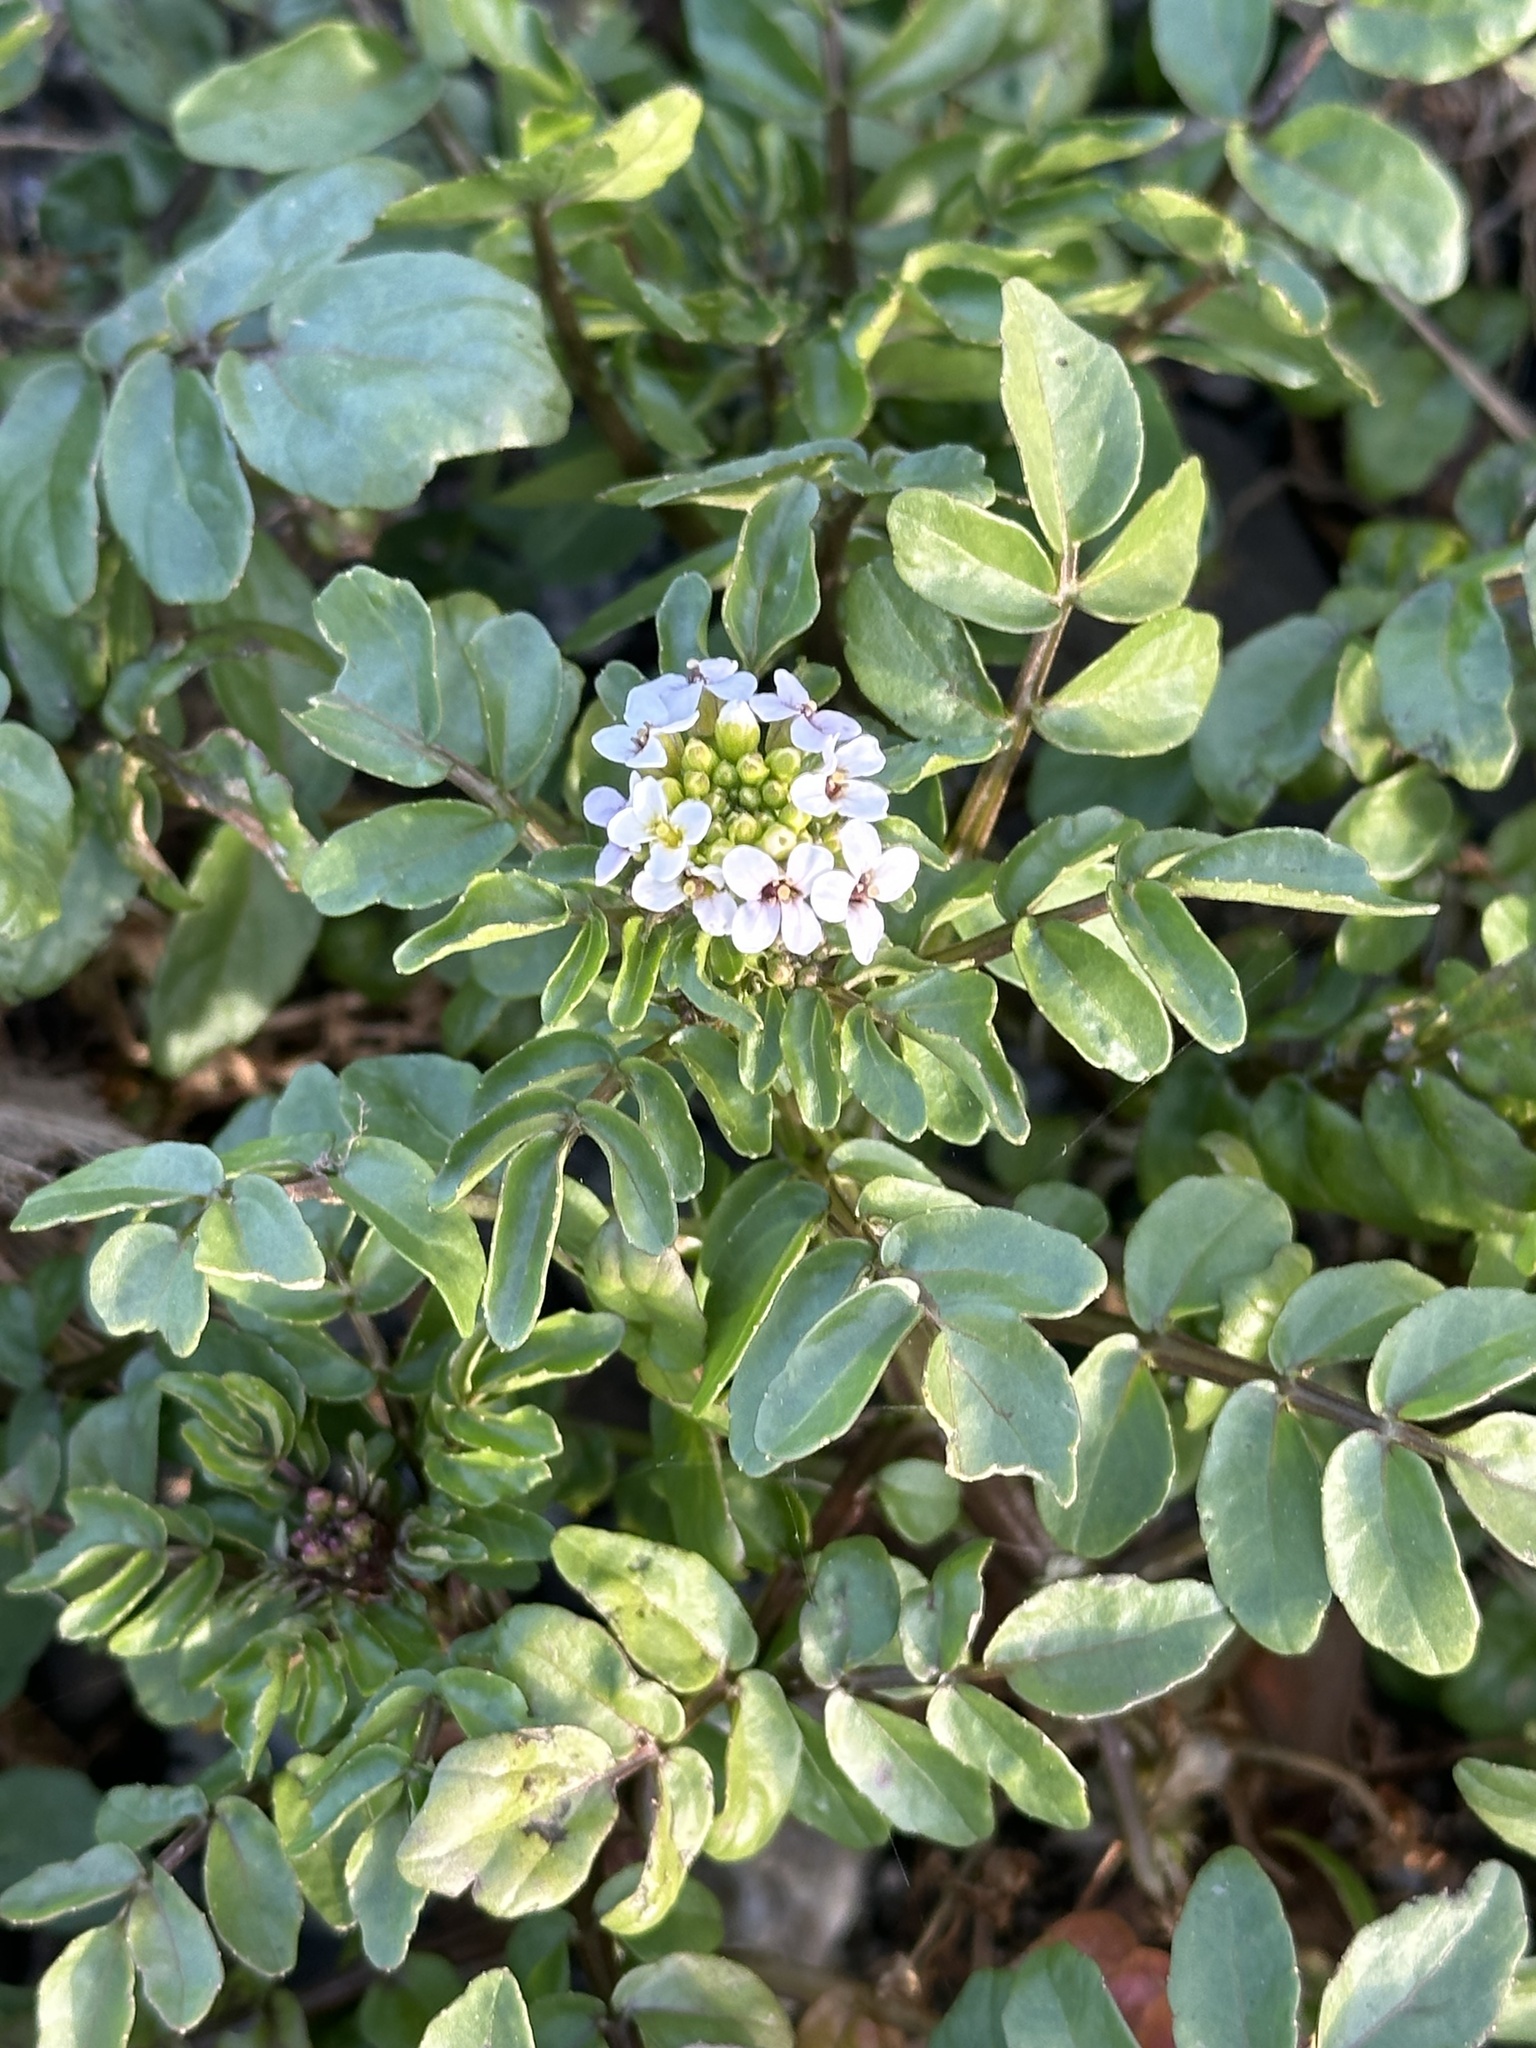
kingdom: Plantae
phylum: Tracheophyta
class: Magnoliopsida
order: Brassicales
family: Brassicaceae
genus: Nasturtium
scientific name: Nasturtium officinale
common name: Watercress
